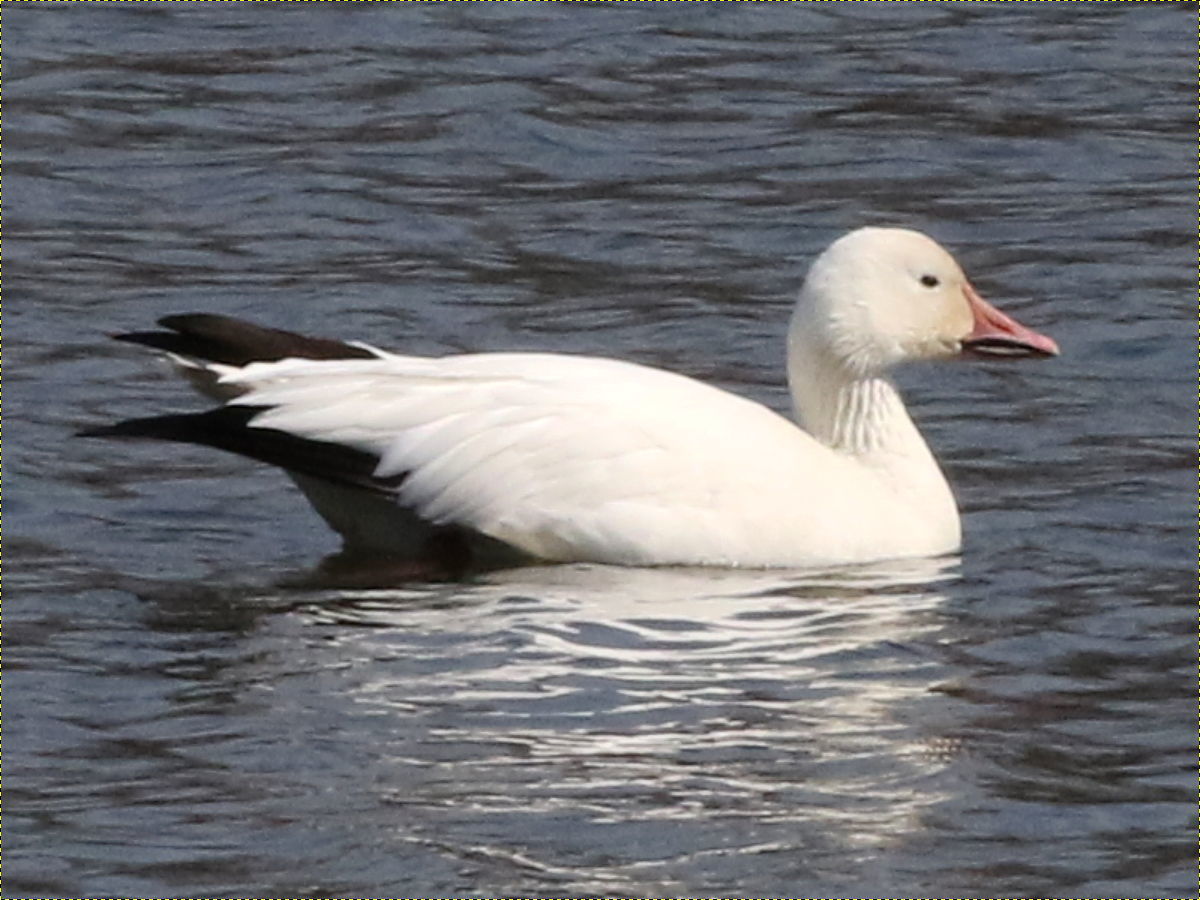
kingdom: Animalia
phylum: Chordata
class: Aves
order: Anseriformes
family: Anatidae
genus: Anser
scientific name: Anser caerulescens
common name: Snow goose
